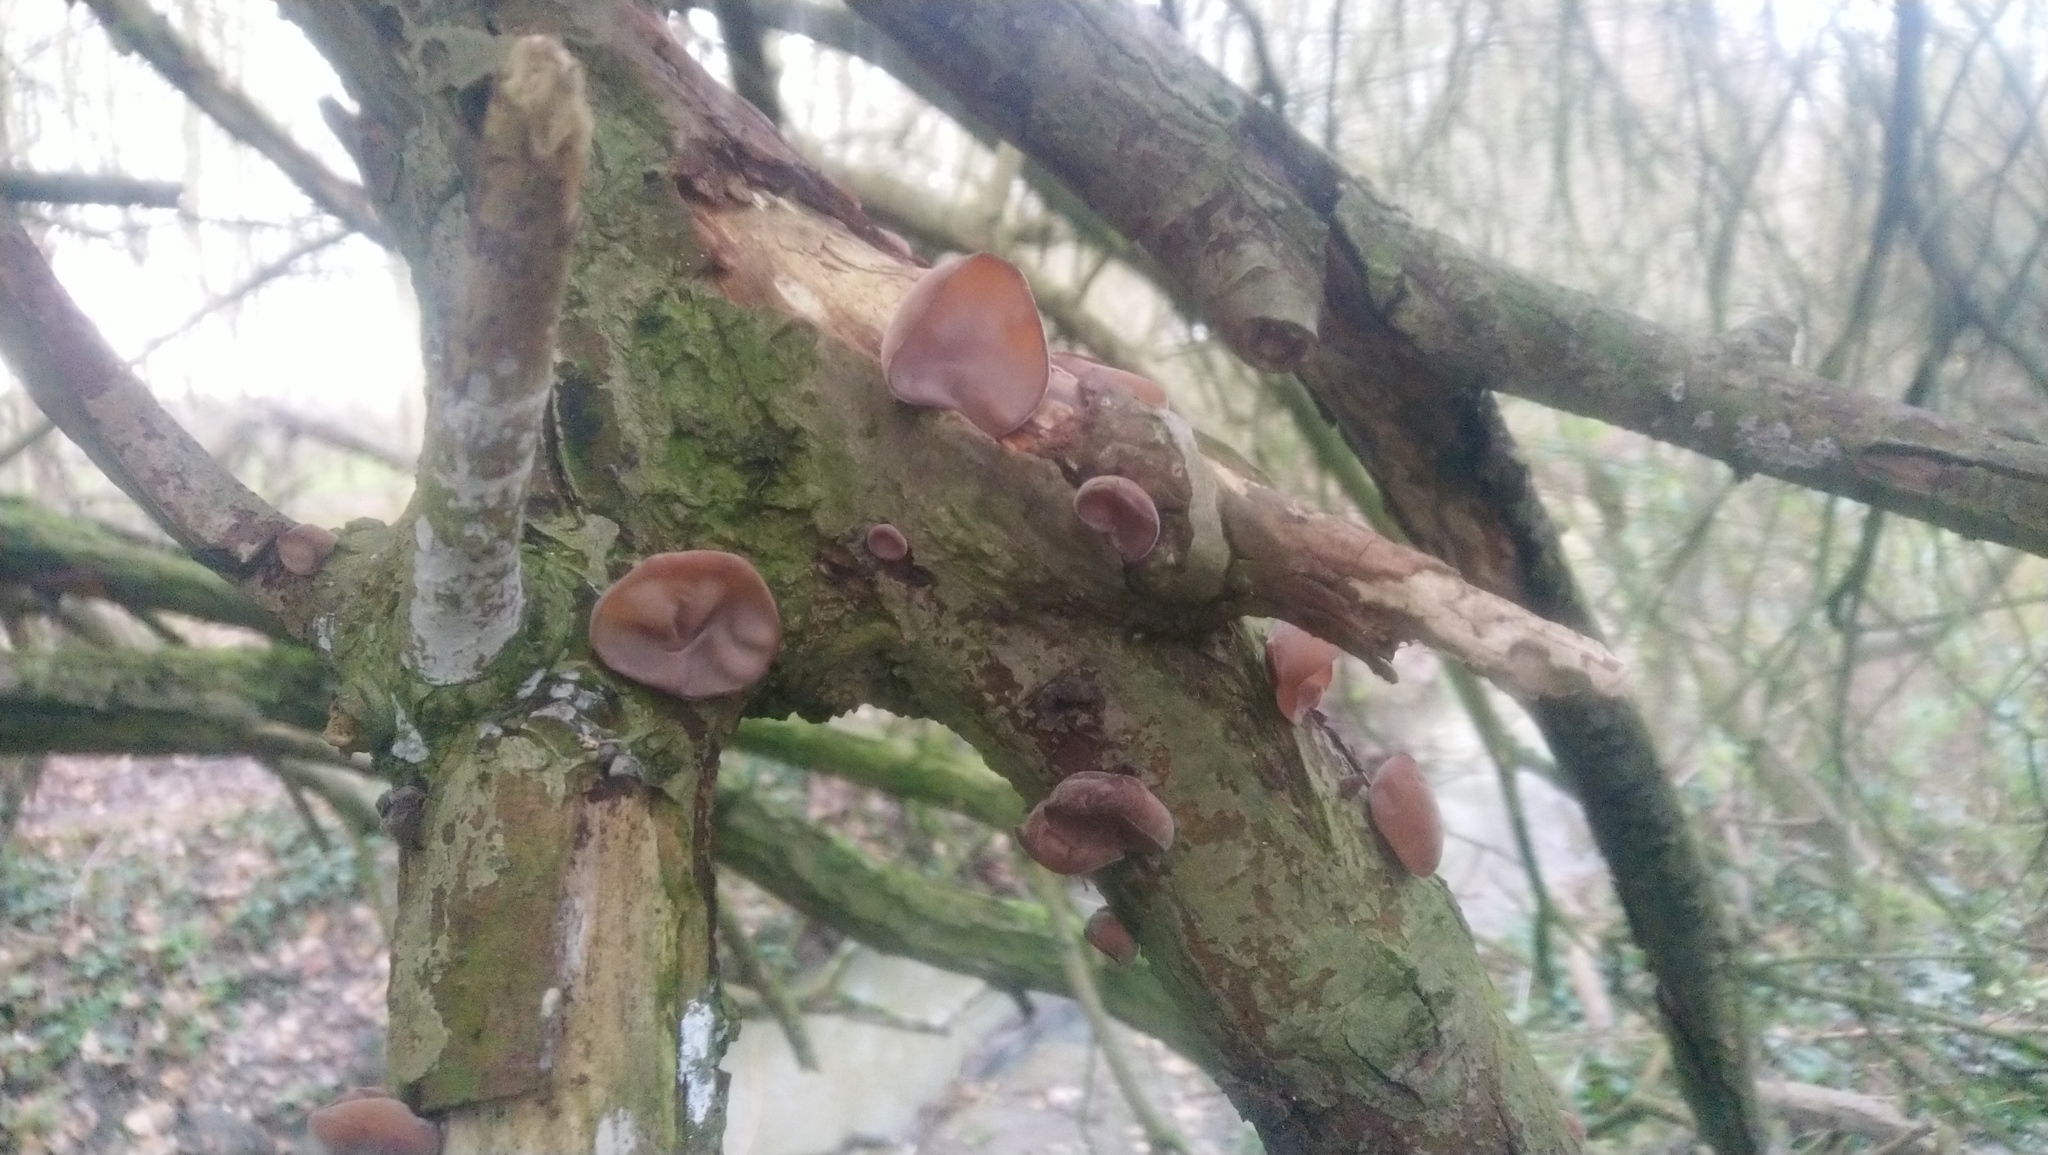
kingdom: Fungi
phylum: Basidiomycota
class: Agaricomycetes
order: Auriculariales
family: Auriculariaceae
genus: Auricularia
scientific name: Auricularia auricula-judae
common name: Jelly ear
